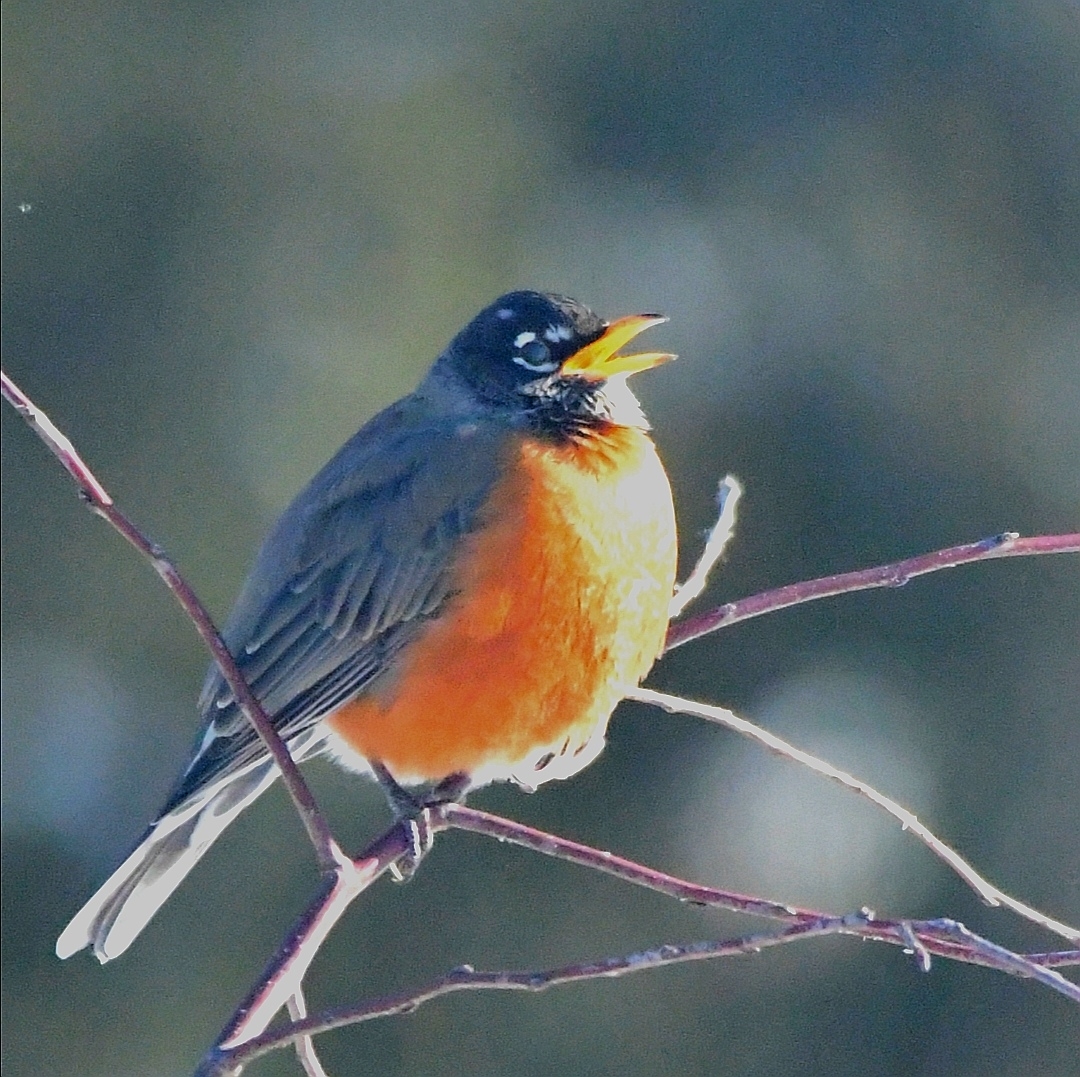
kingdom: Animalia
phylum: Chordata
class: Aves
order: Passeriformes
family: Turdidae
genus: Turdus
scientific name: Turdus migratorius
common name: American robin
